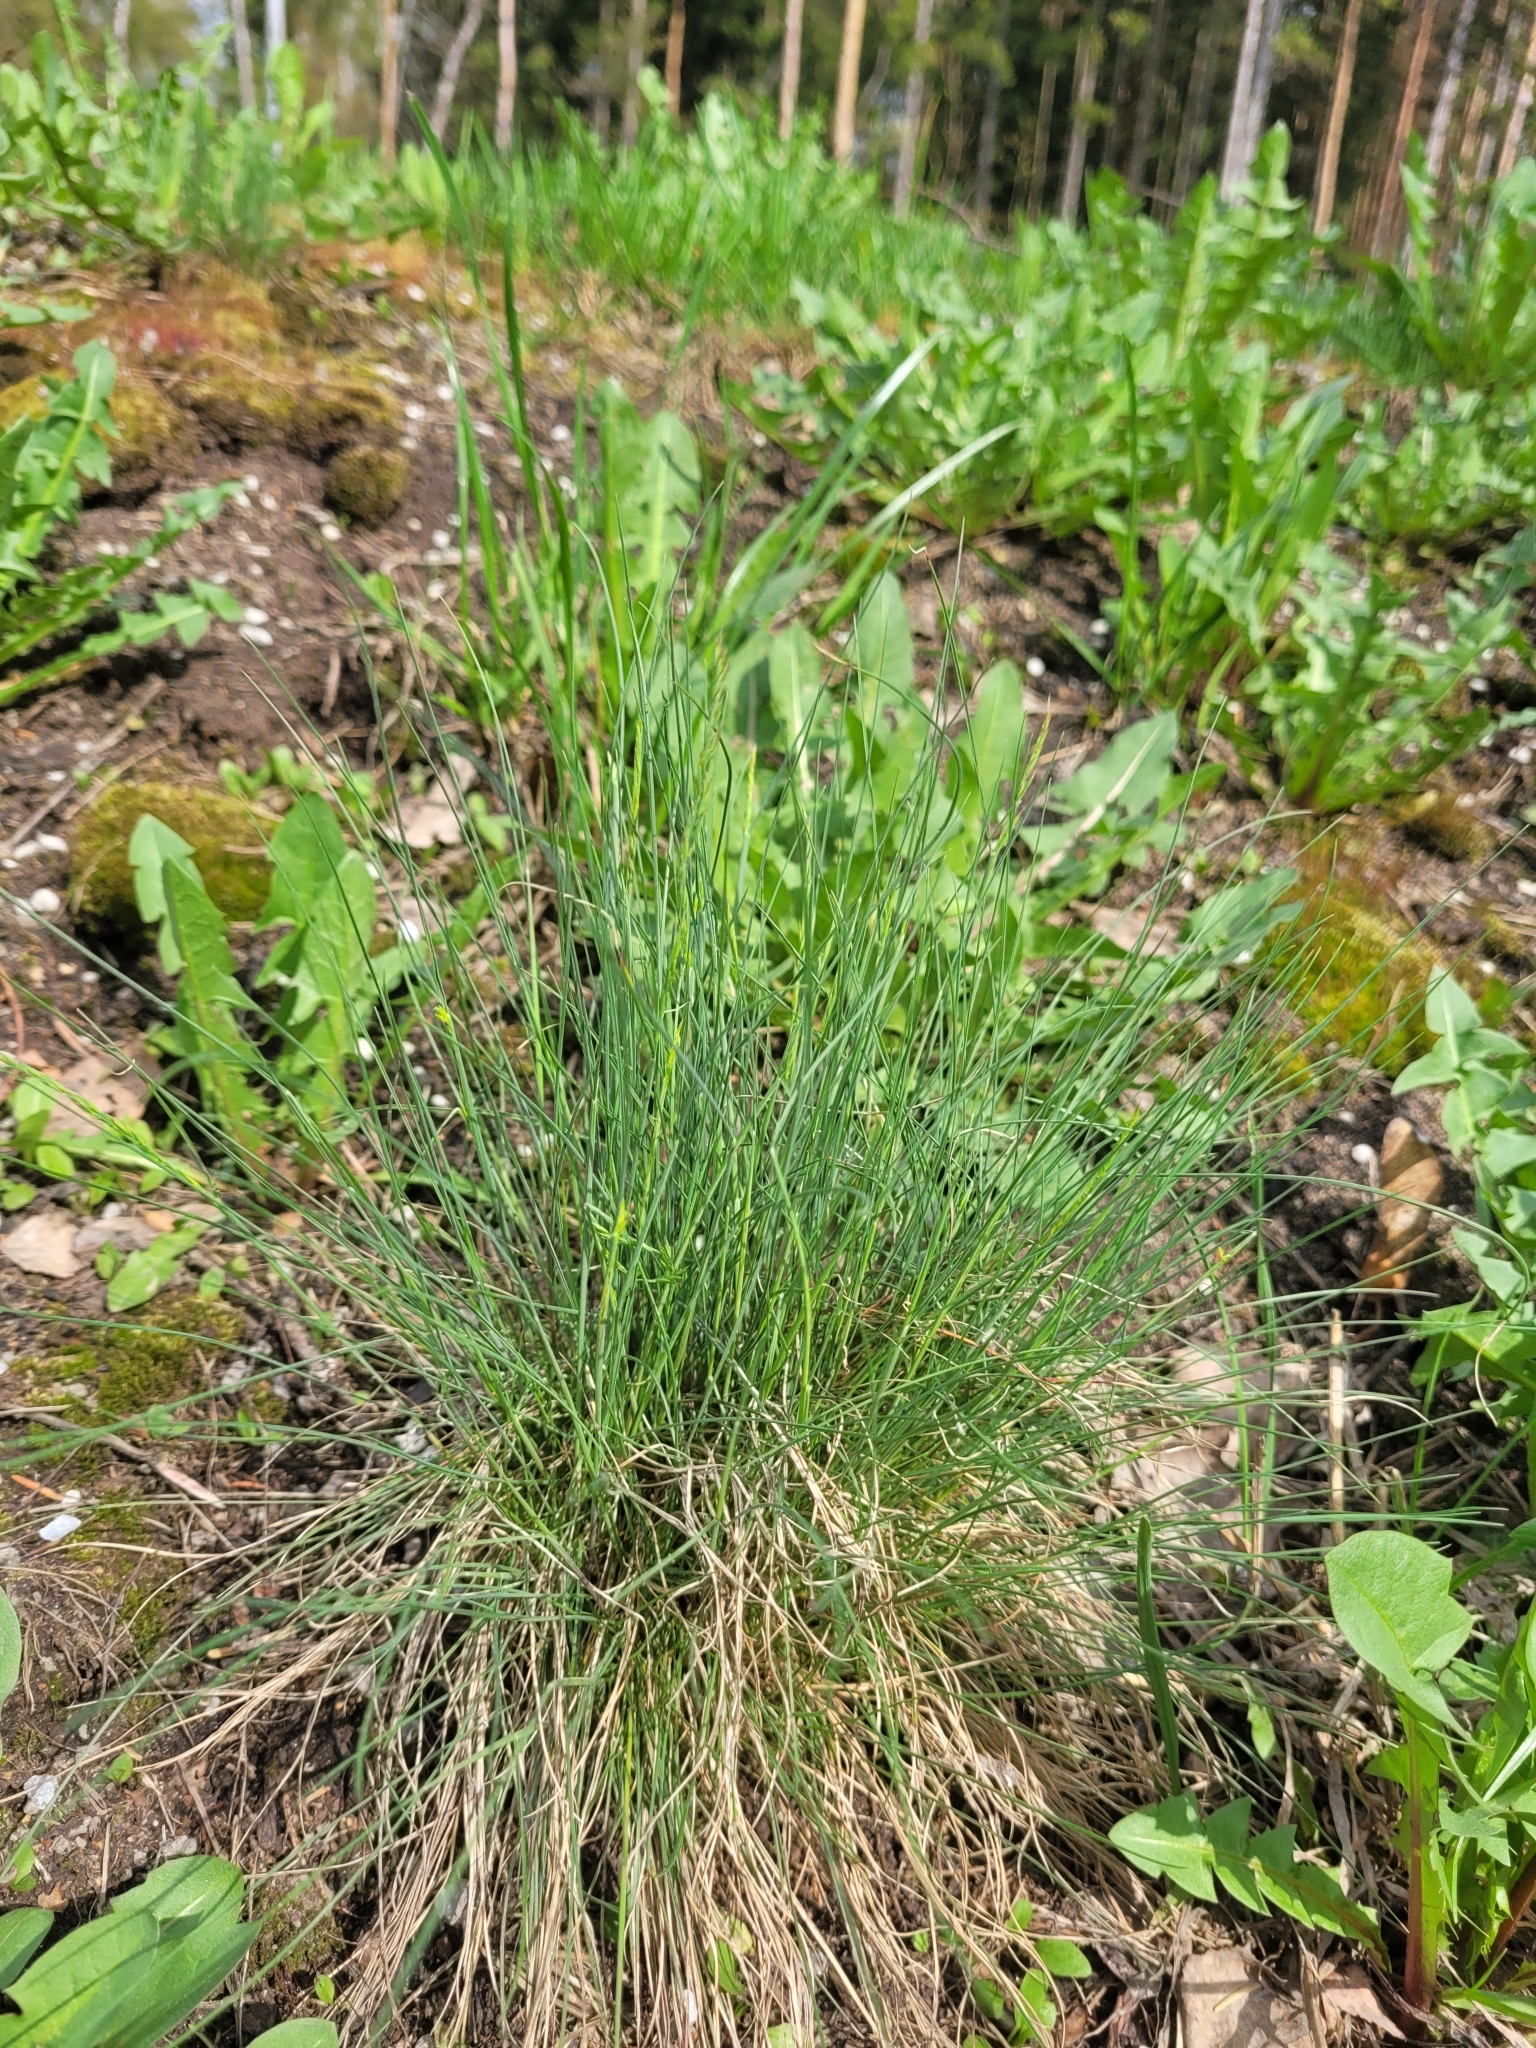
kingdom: Plantae
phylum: Tracheophyta
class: Liliopsida
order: Poales
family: Poaceae
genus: Festuca
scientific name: Festuca valesiaca
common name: Volga fescue
